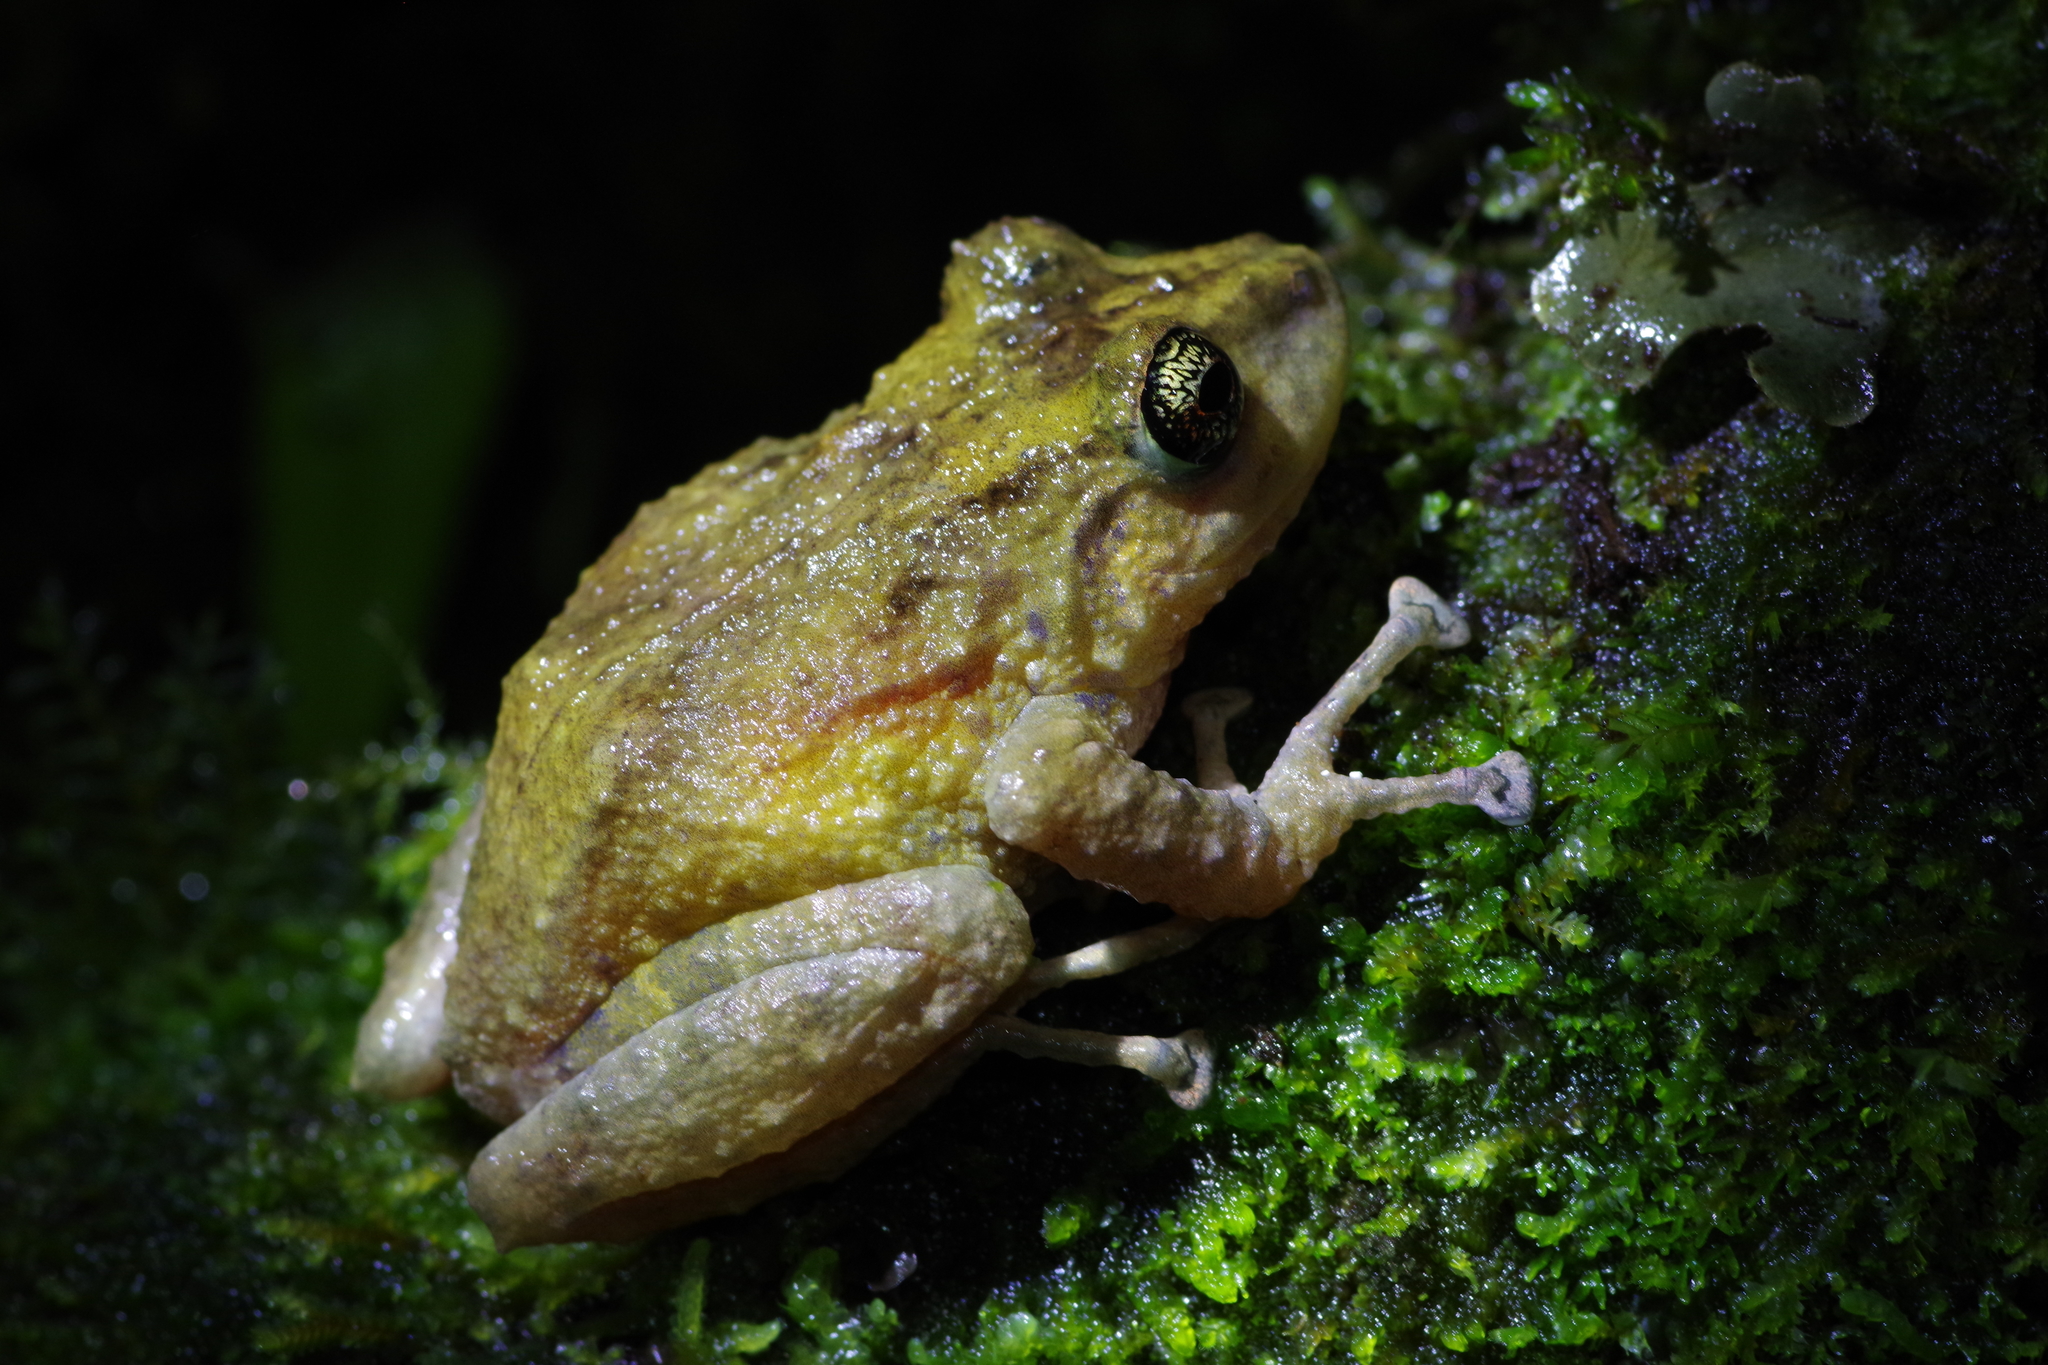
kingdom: Animalia
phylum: Chordata
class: Amphibia
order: Anura
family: Craugastoridae
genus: Pristimantis
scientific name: Pristimantis cruentus
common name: Chiriqui robber frog
